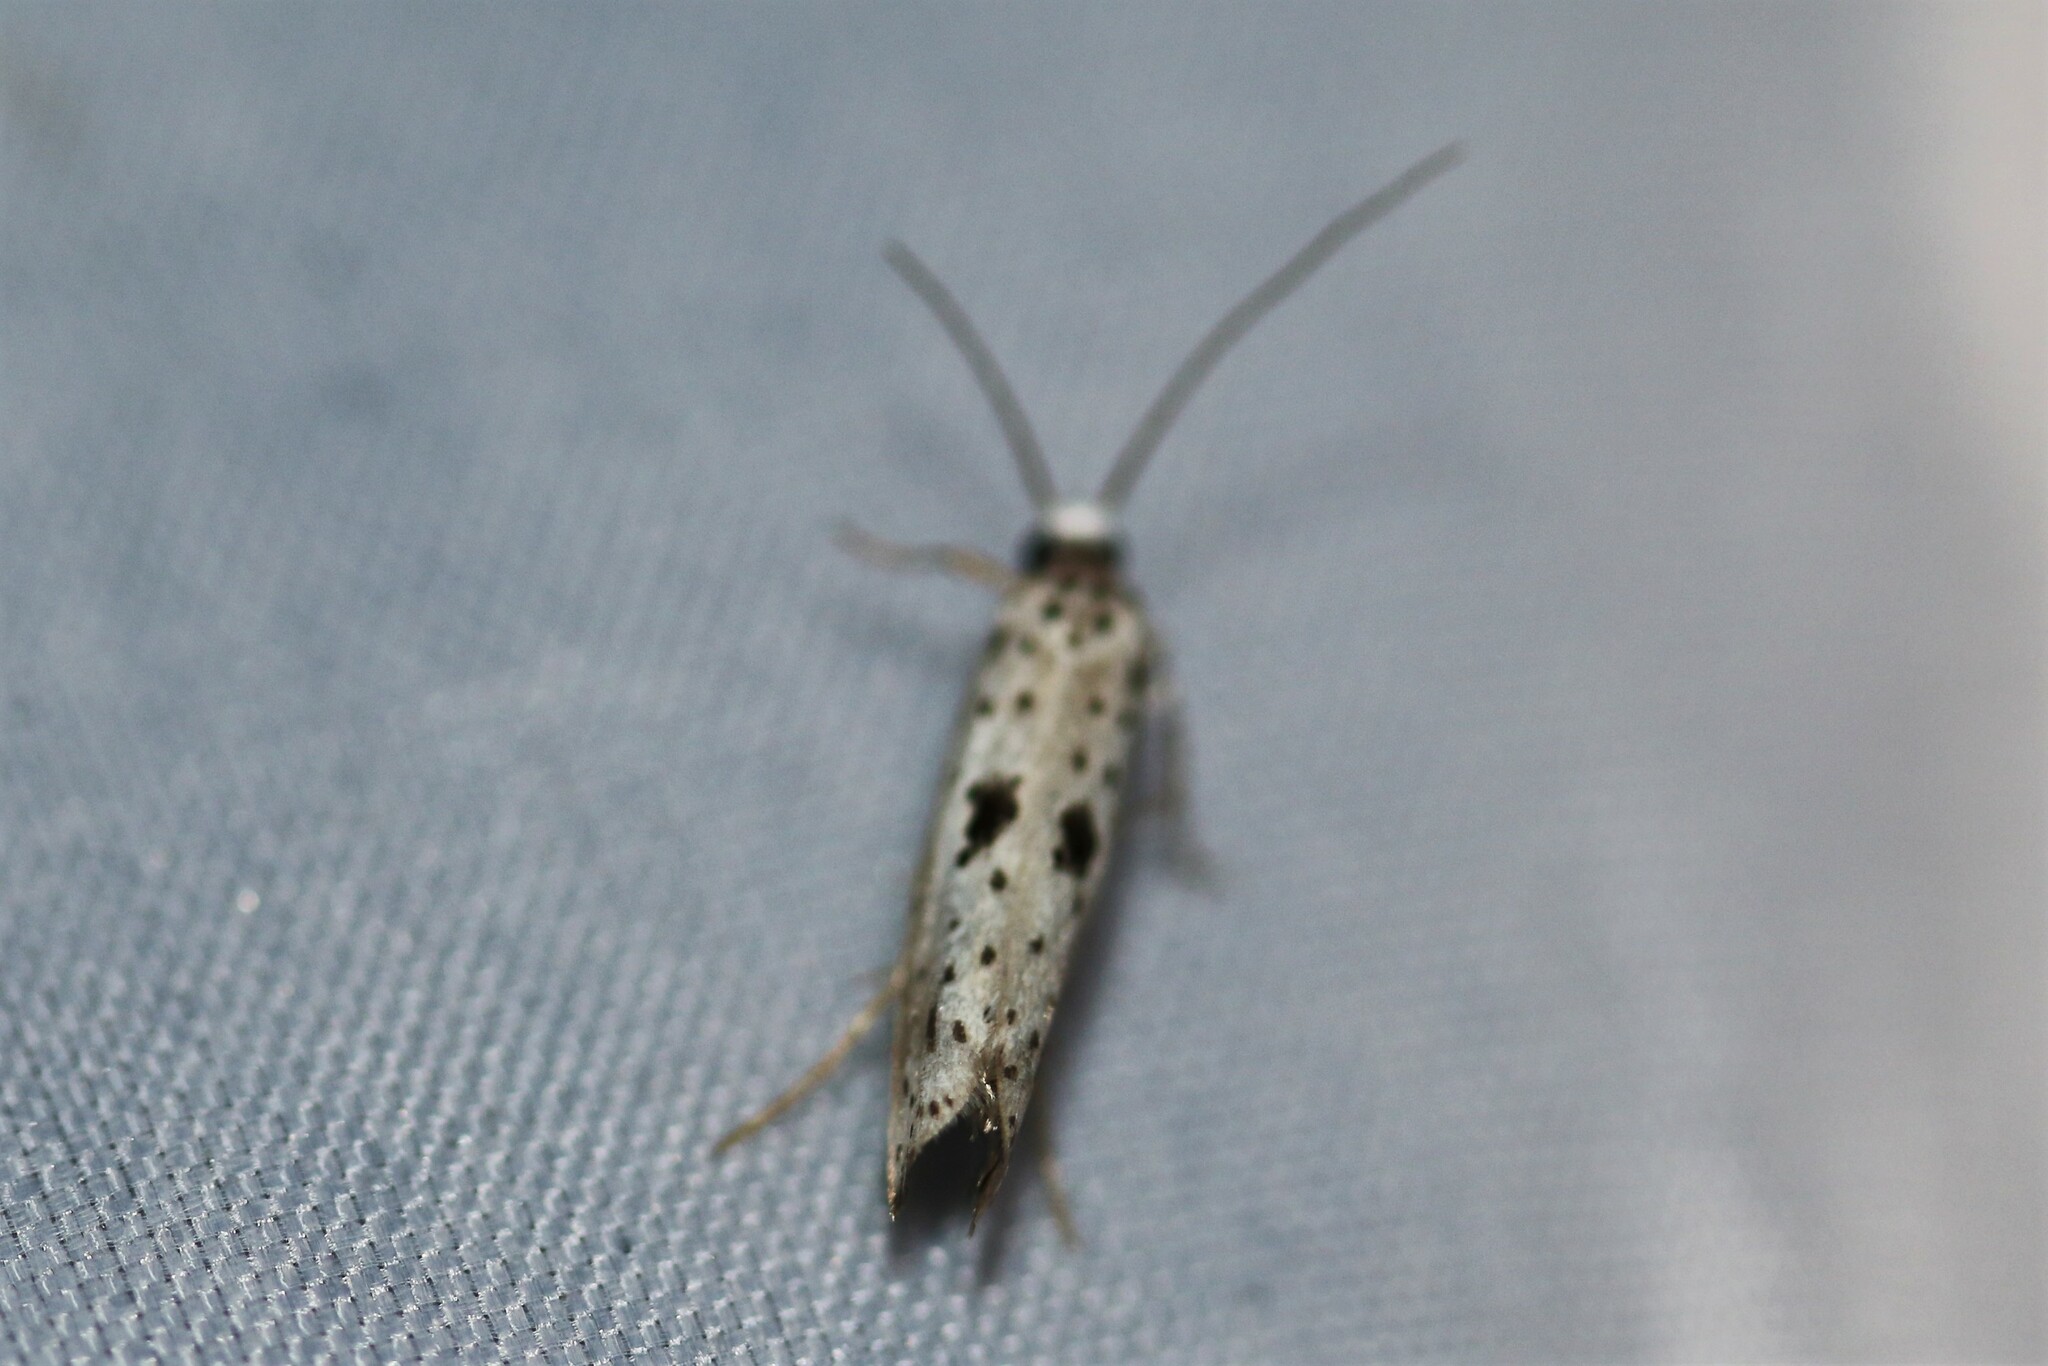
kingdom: Animalia
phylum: Arthropoda
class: Insecta
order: Lepidoptera
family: Yponomeutidae
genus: Yponomeuta
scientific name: Yponomeuta plumbella
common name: Black-tipped ermine
